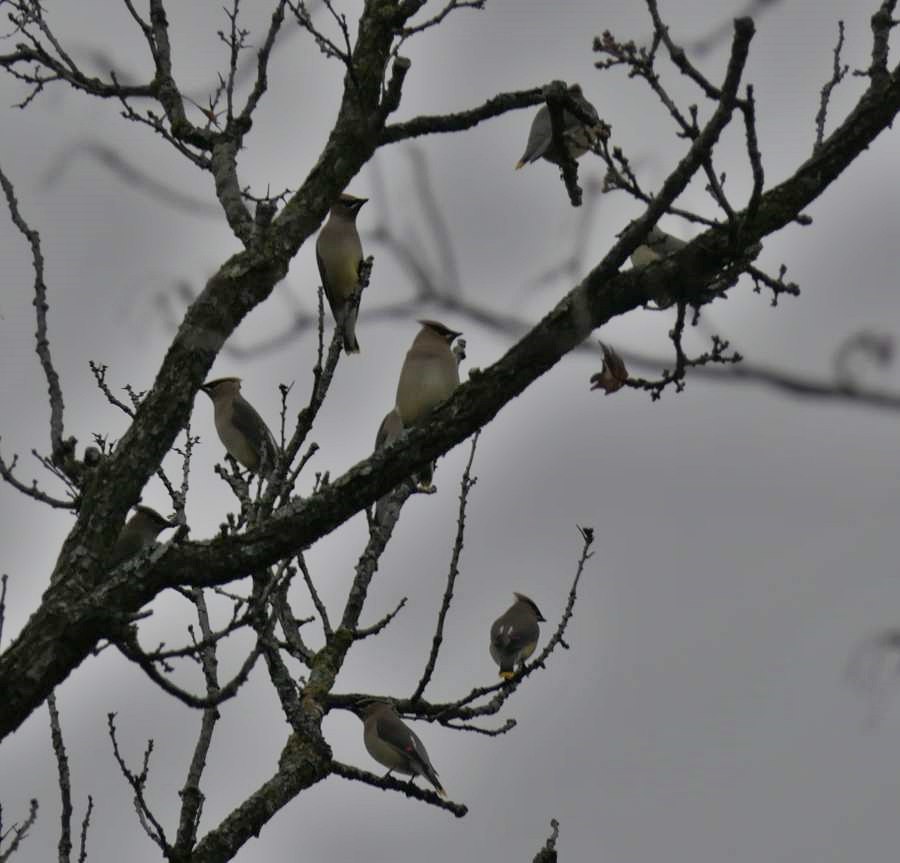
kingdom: Animalia
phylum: Chordata
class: Aves
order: Passeriformes
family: Bombycillidae
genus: Bombycilla
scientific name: Bombycilla cedrorum
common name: Cedar waxwing
